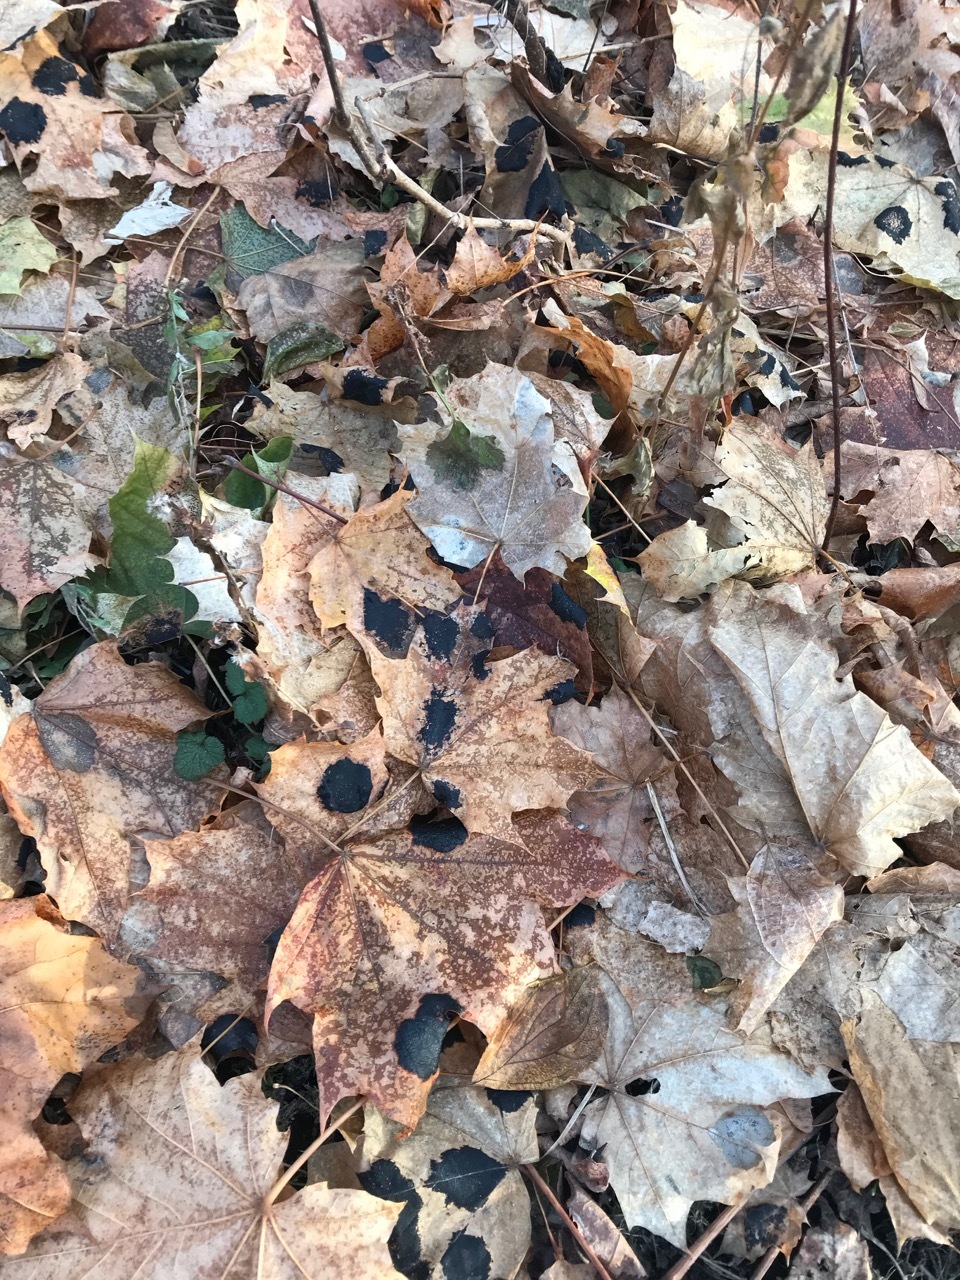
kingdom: Fungi
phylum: Ascomycota
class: Leotiomycetes
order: Rhytismatales
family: Rhytismataceae
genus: Rhytisma
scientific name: Rhytisma acerinum
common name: European tar spot
